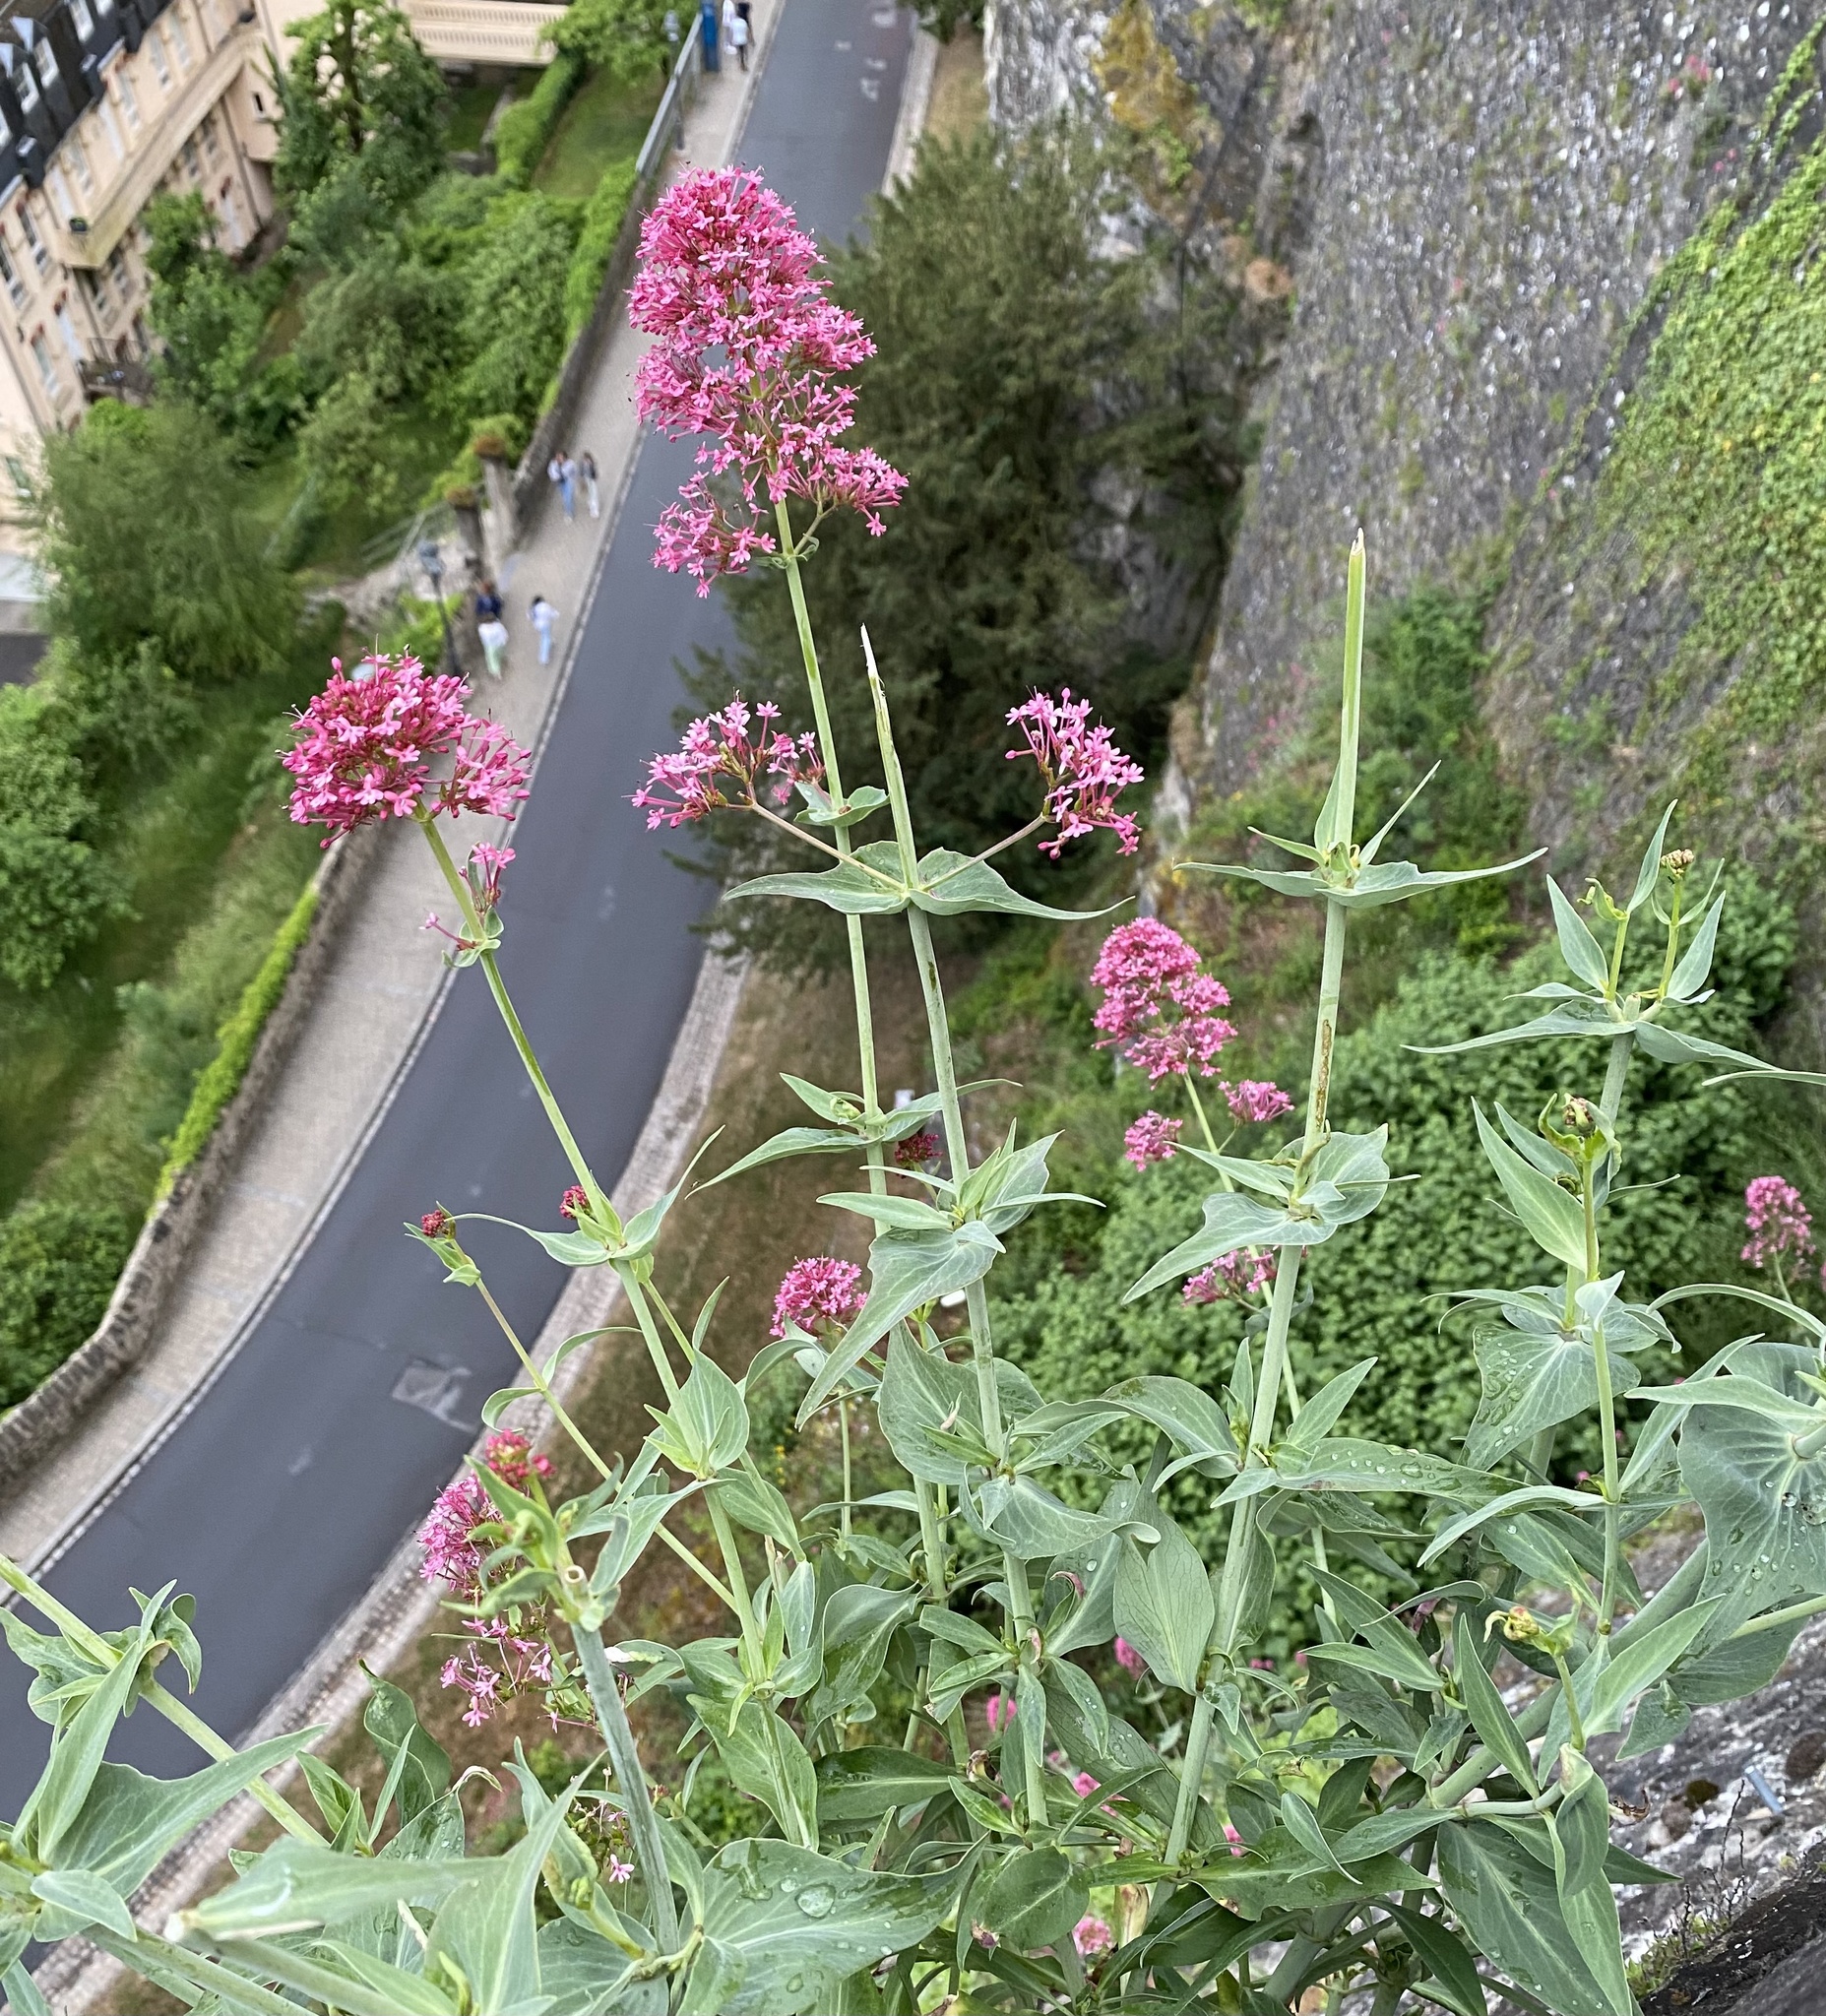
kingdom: Plantae
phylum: Tracheophyta
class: Magnoliopsida
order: Dipsacales
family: Caprifoliaceae
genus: Centranthus
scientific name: Centranthus ruber
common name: Red valerian
